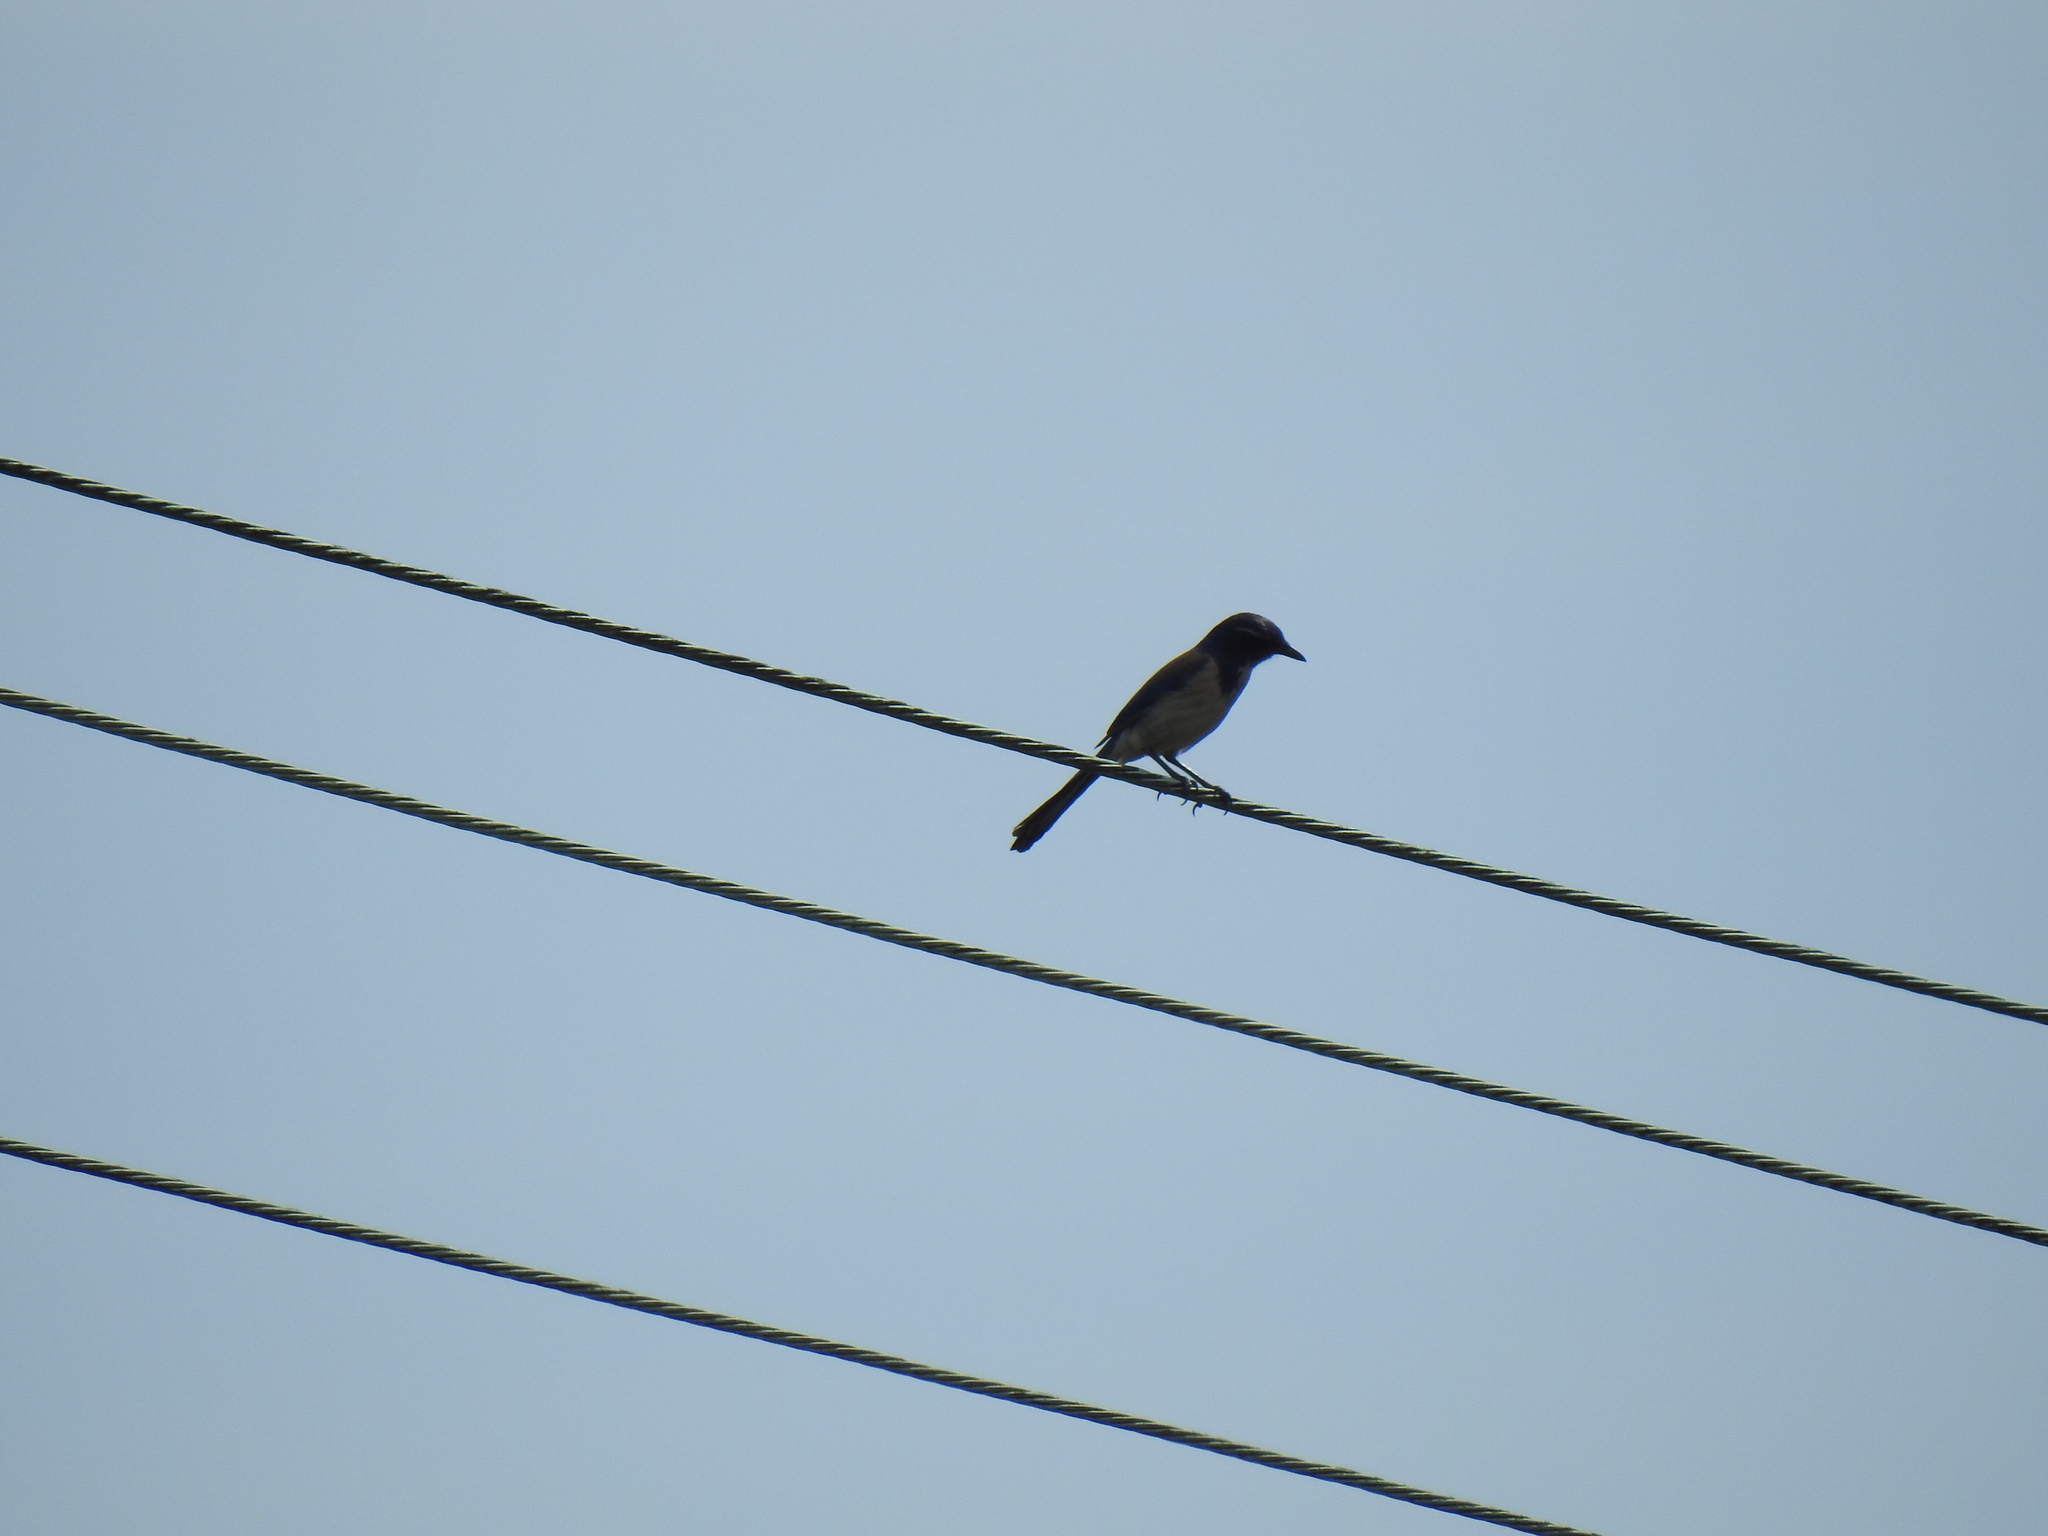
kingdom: Animalia
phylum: Chordata
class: Aves
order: Passeriformes
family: Corvidae
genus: Aphelocoma
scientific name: Aphelocoma californica
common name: California scrub-jay
